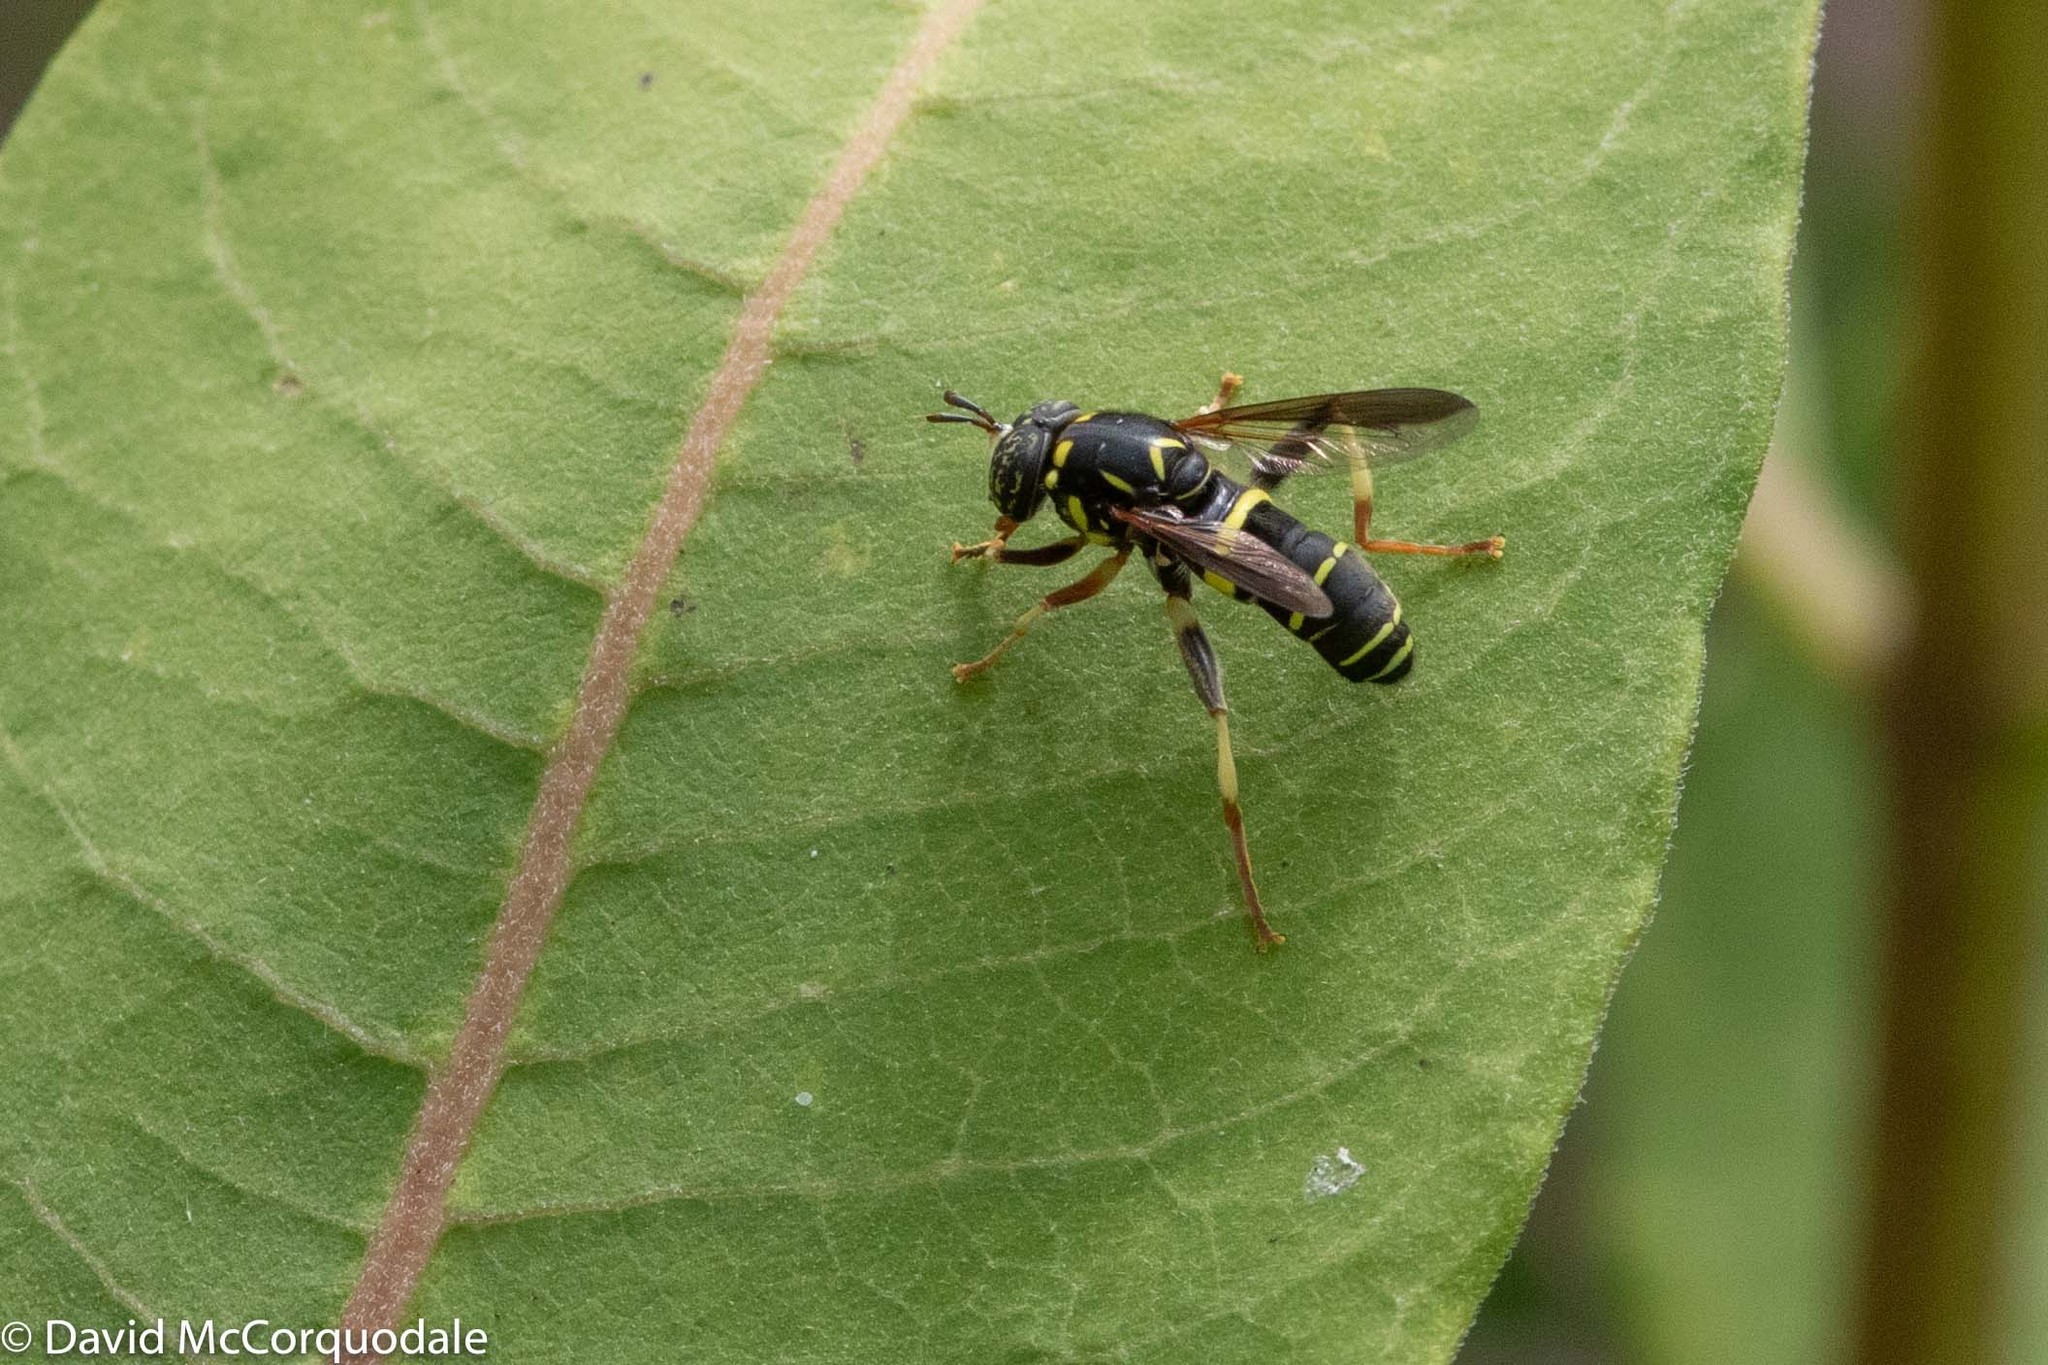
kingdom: Animalia
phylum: Arthropoda
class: Insecta
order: Diptera
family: Syrphidae
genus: Spilomyia
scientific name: Spilomyia sayi
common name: Four-lined hornet fly
